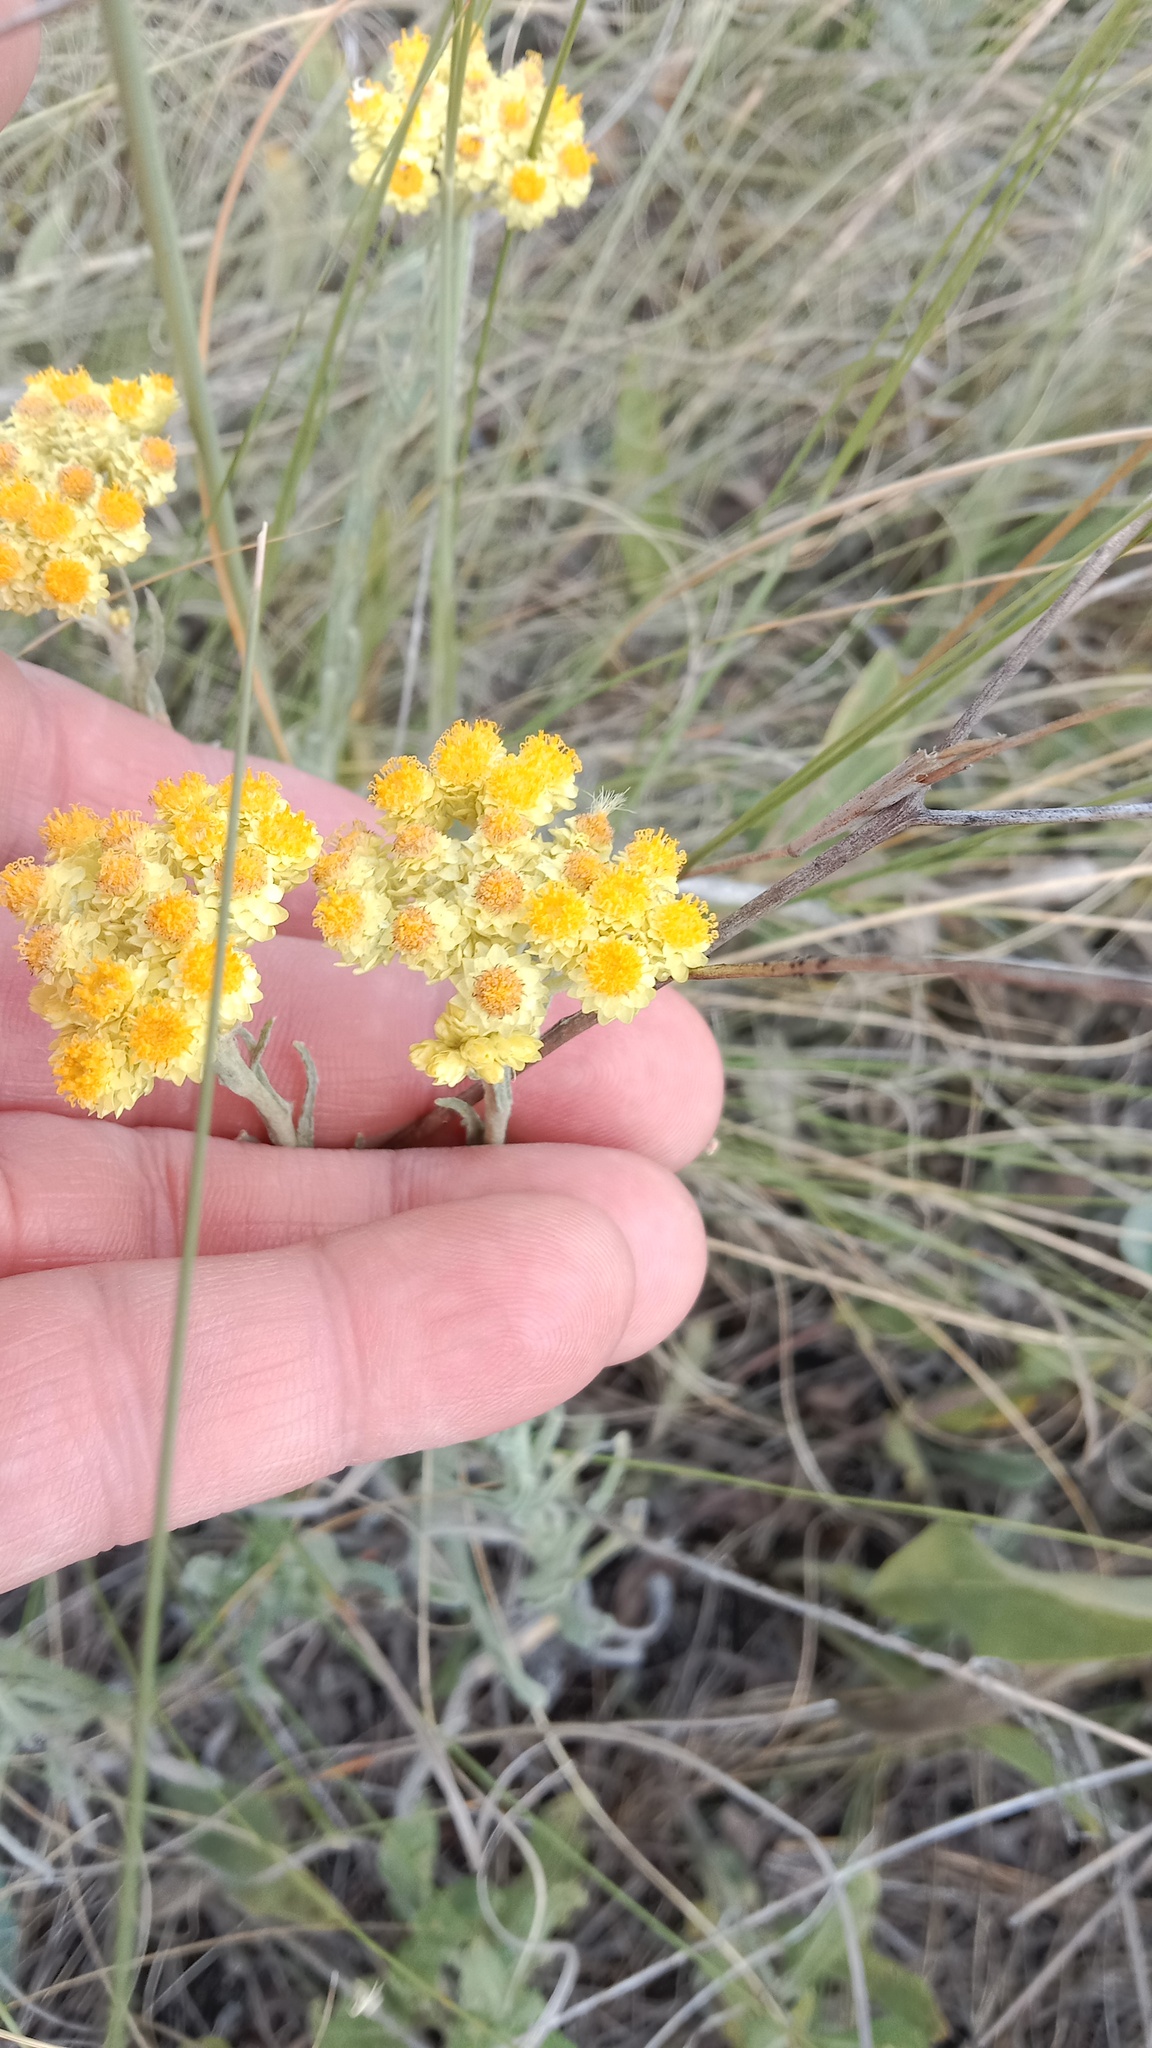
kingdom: Plantae
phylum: Tracheophyta
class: Magnoliopsida
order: Asterales
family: Asteraceae
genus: Helichrysum
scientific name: Helichrysum arenarium
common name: Strawflower
